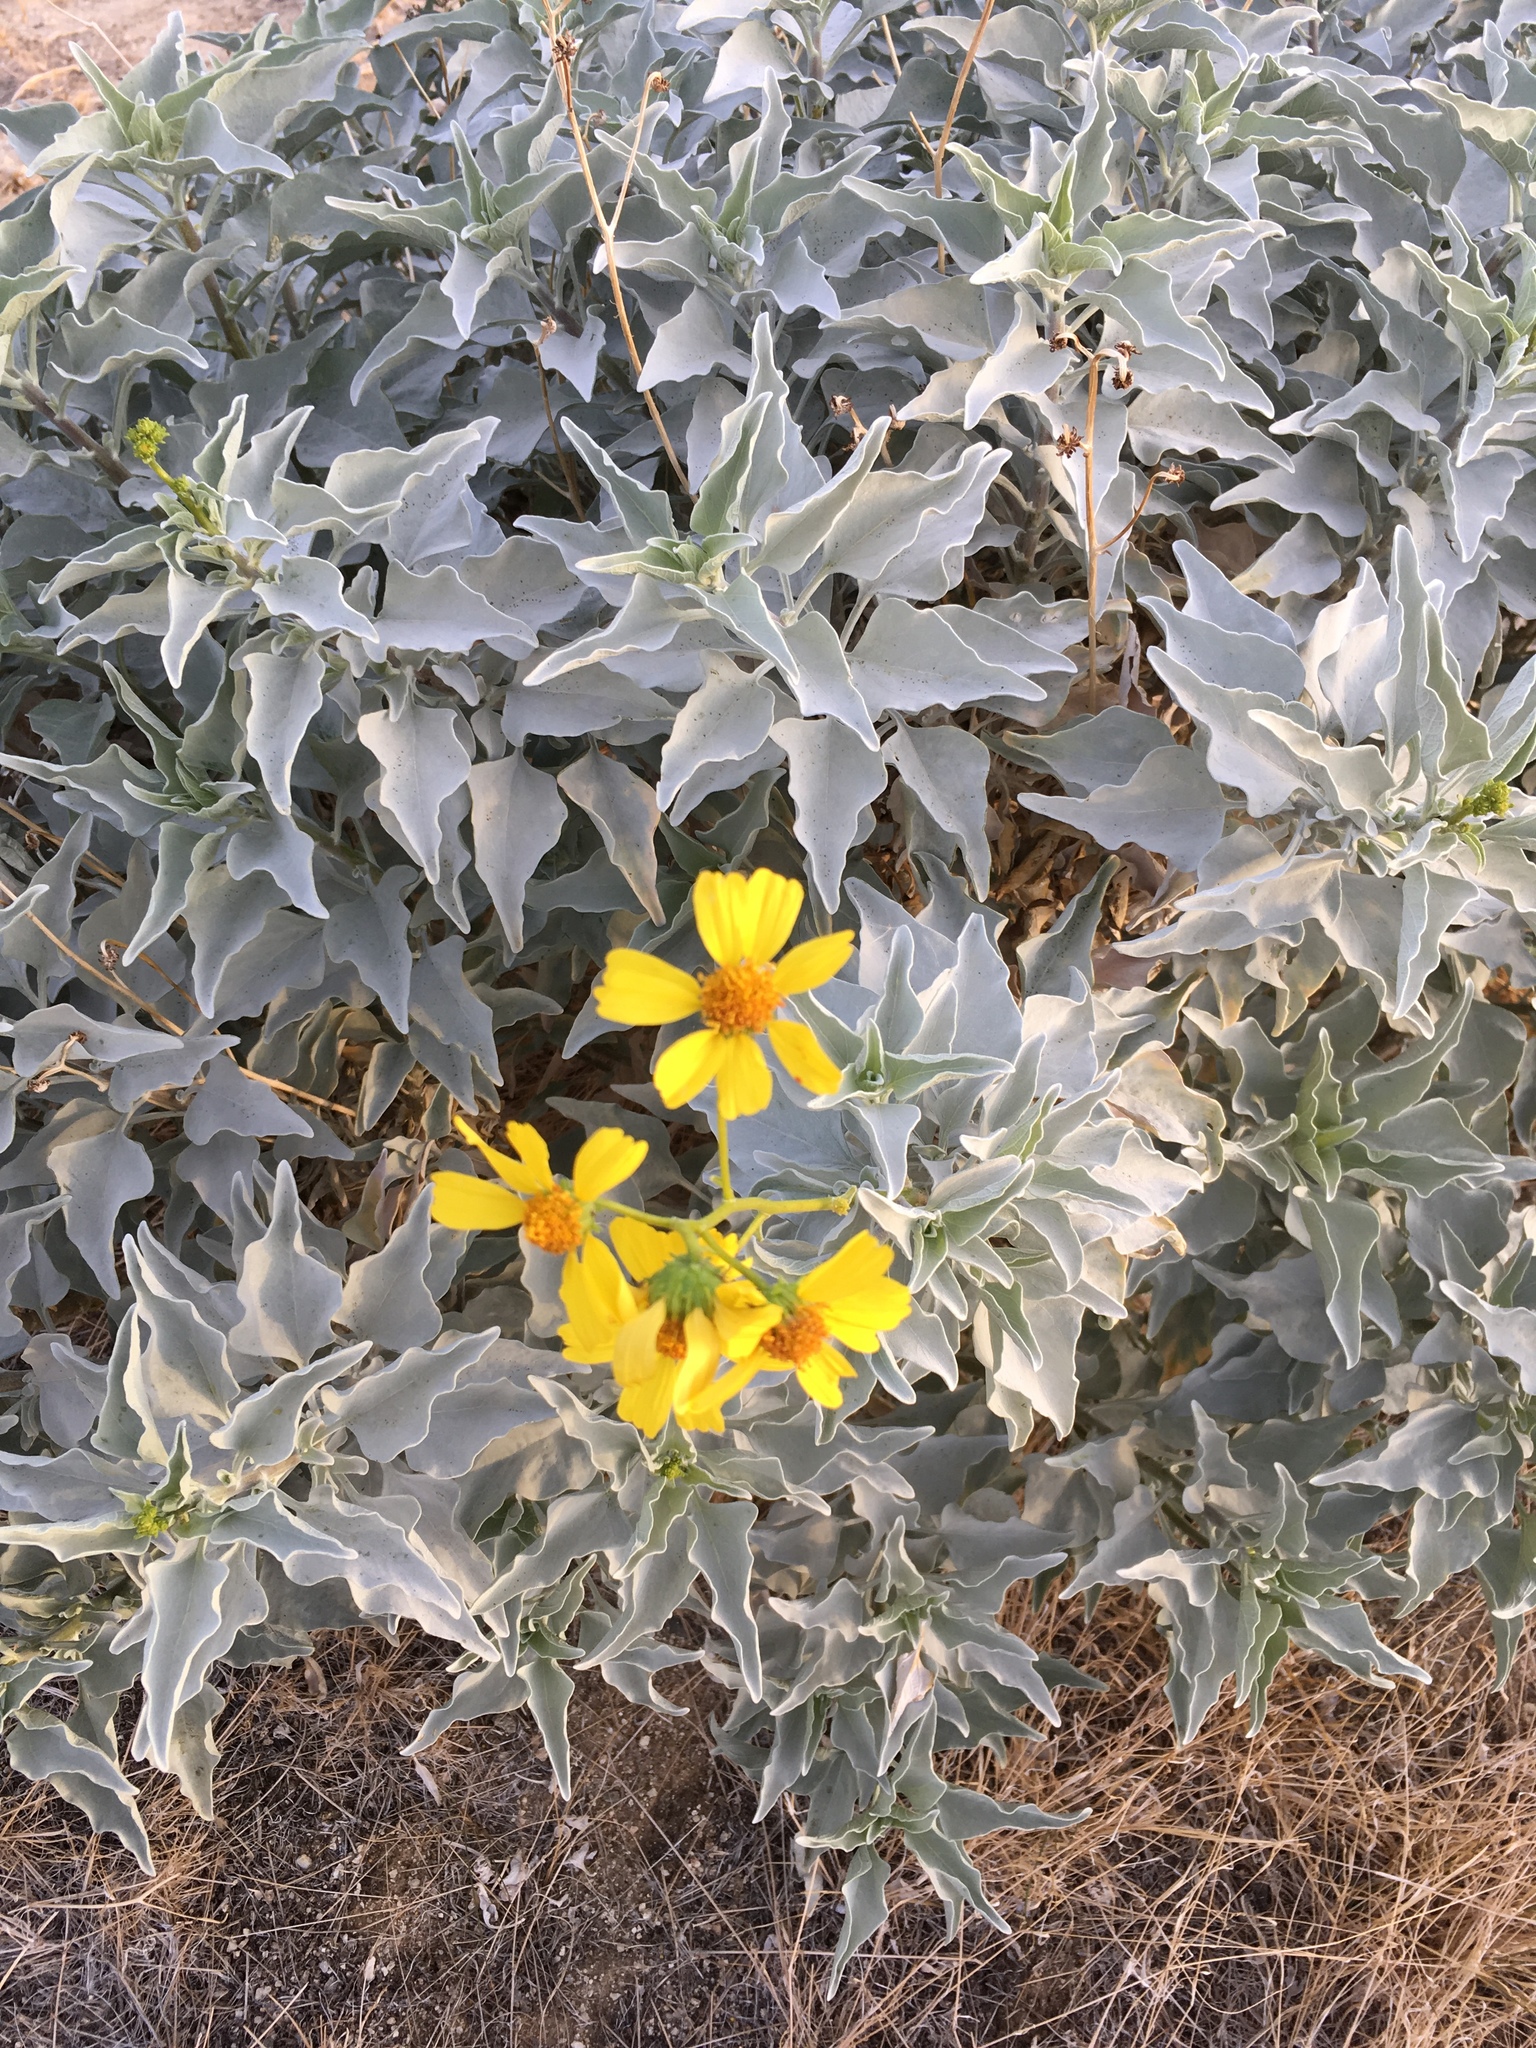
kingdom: Plantae
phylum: Tracheophyta
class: Magnoliopsida
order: Asterales
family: Asteraceae
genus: Encelia
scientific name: Encelia farinosa
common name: Brittlebush
